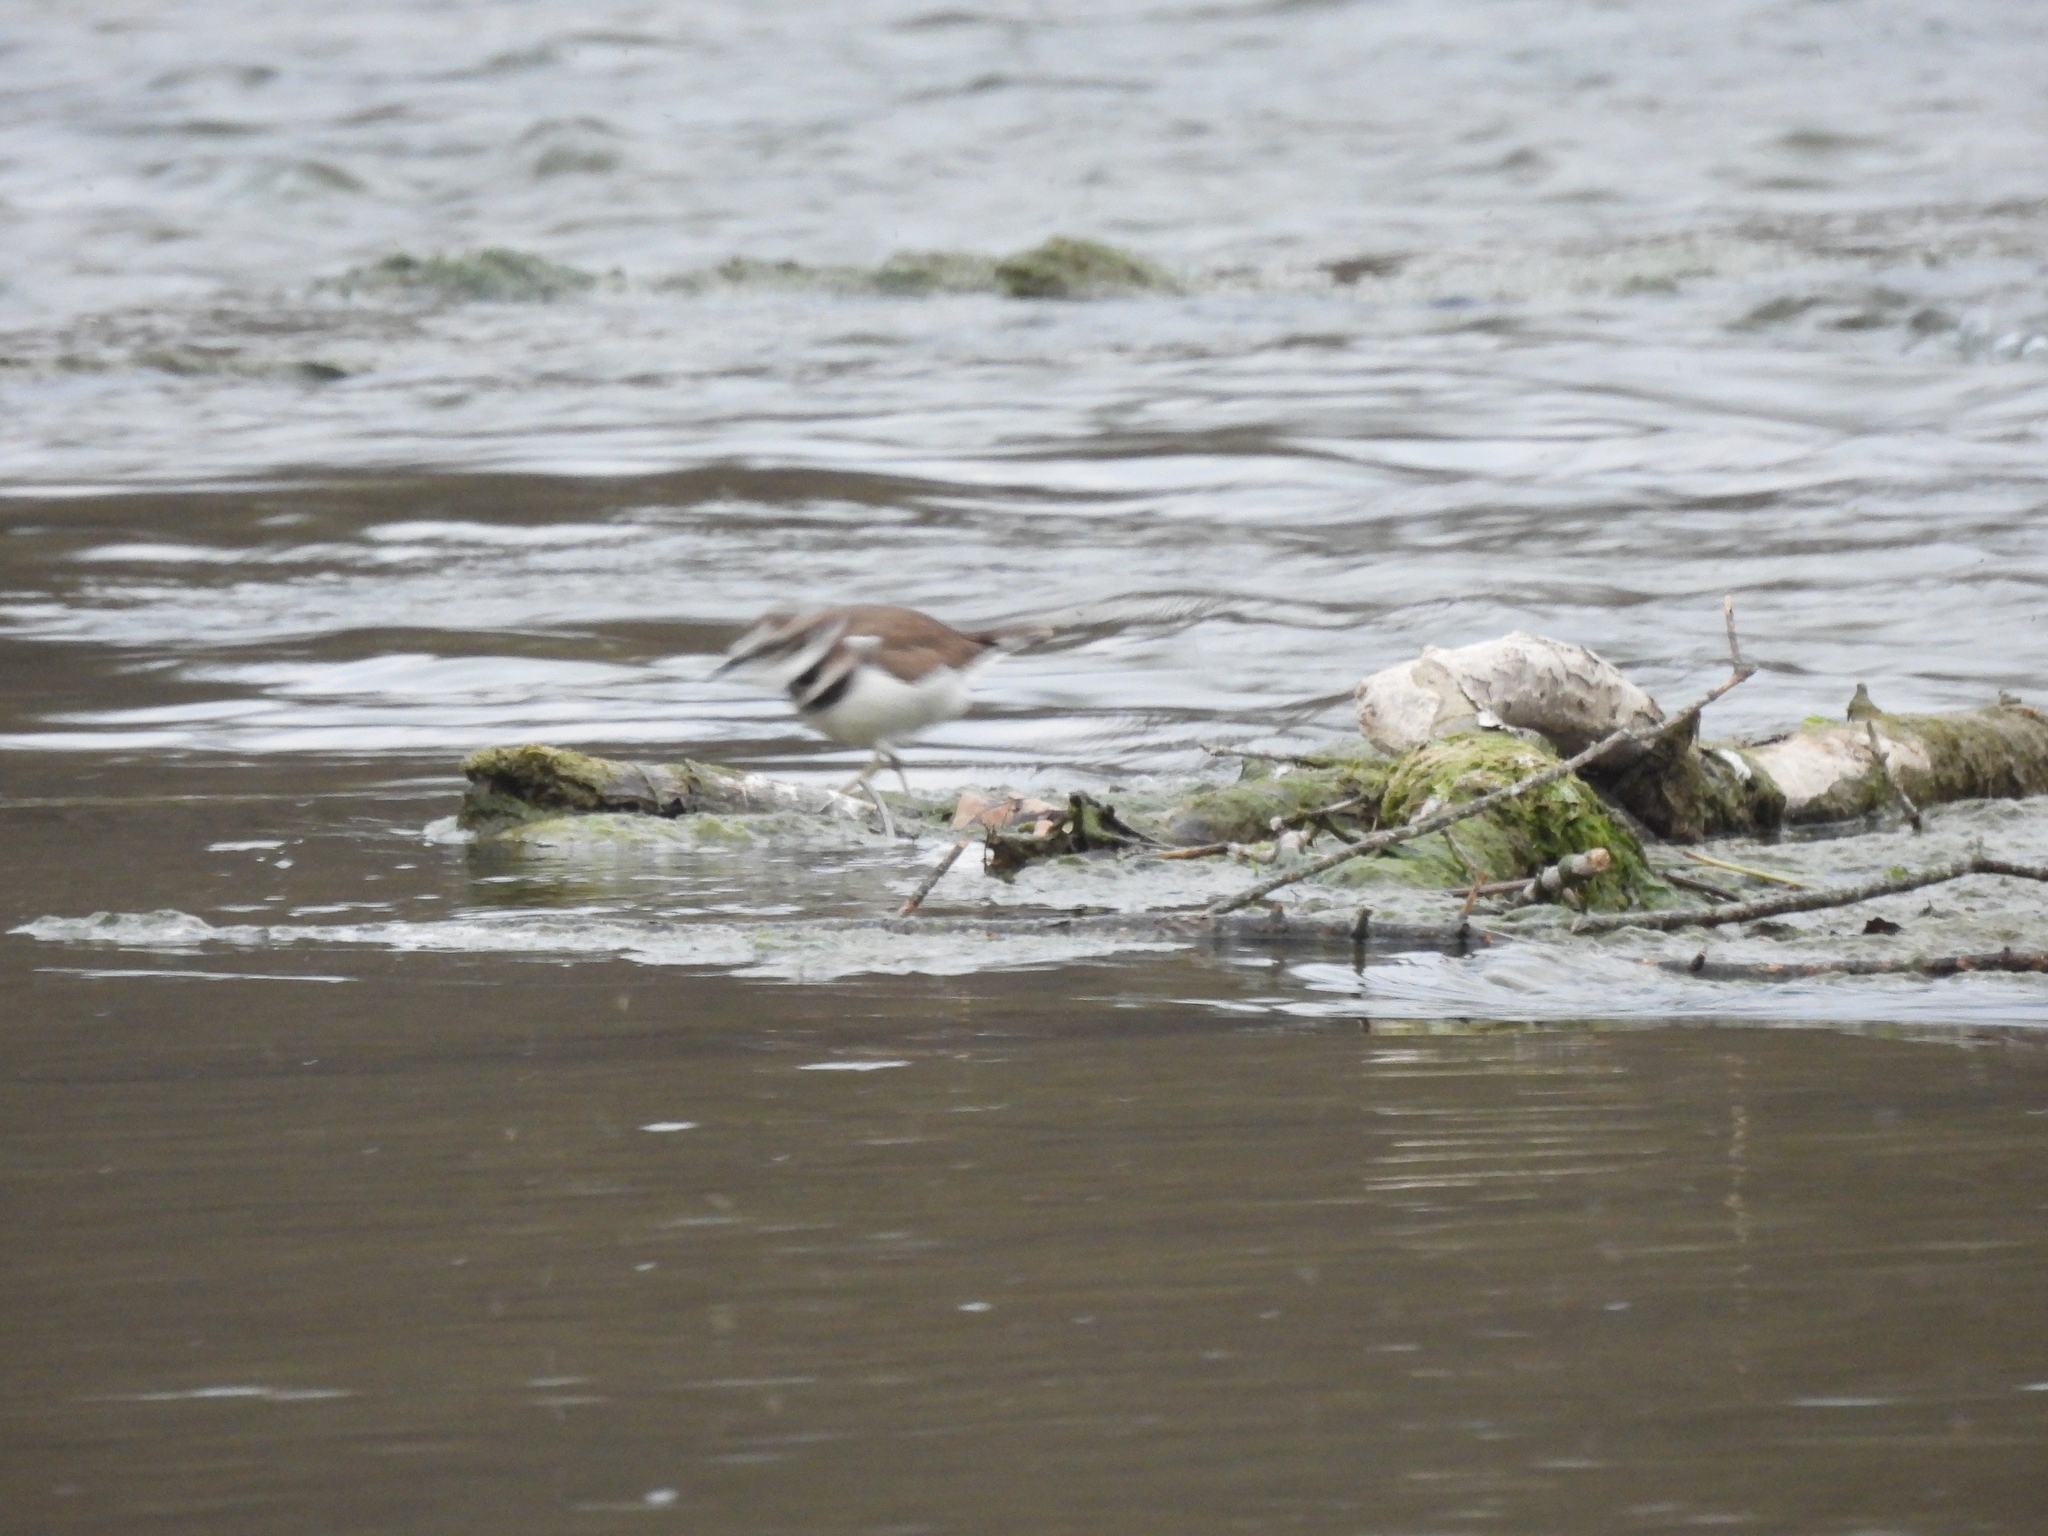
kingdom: Animalia
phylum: Chordata
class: Aves
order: Charadriiformes
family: Charadriidae
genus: Charadrius
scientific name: Charadrius vociferus
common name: Killdeer
